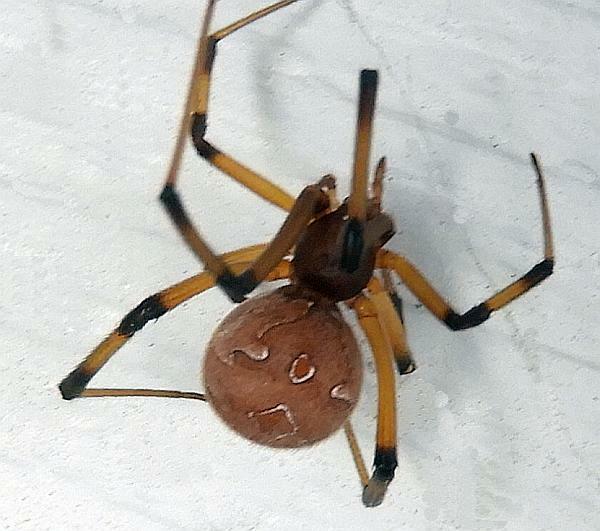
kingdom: Animalia
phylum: Arthropoda
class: Arachnida
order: Araneae
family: Theridiidae
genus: Latrodectus
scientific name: Latrodectus geometricus
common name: Brown widow spider
